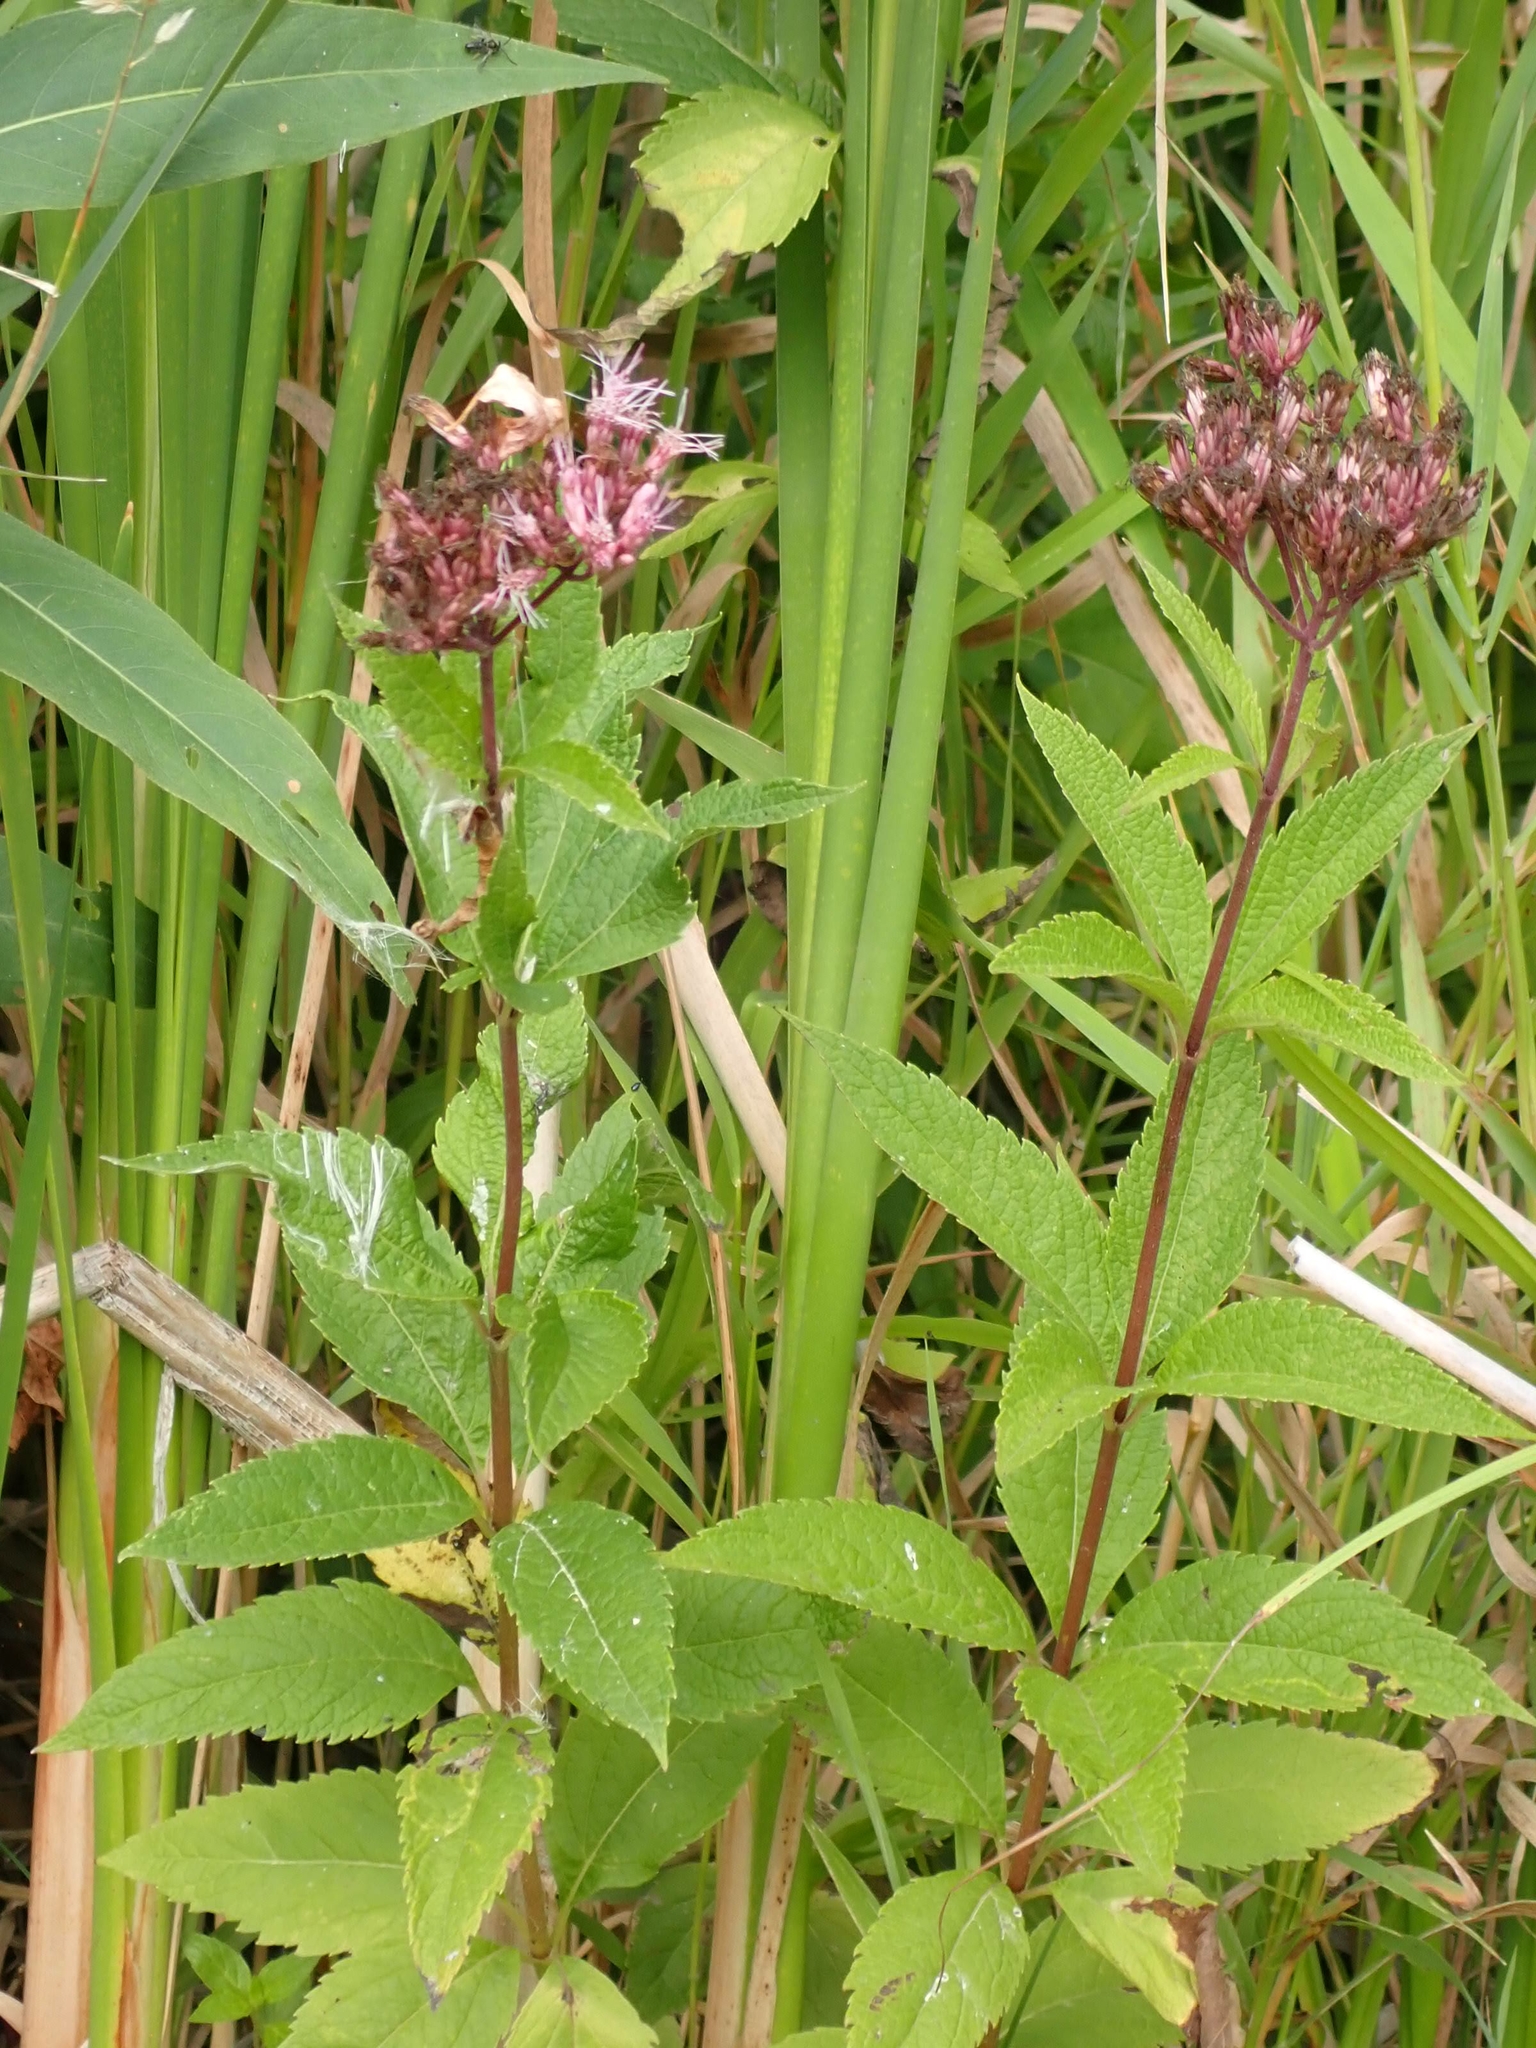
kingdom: Plantae
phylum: Tracheophyta
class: Magnoliopsida
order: Asterales
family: Asteraceae
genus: Eutrochium
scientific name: Eutrochium maculatum
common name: Spotted joe pye weed
